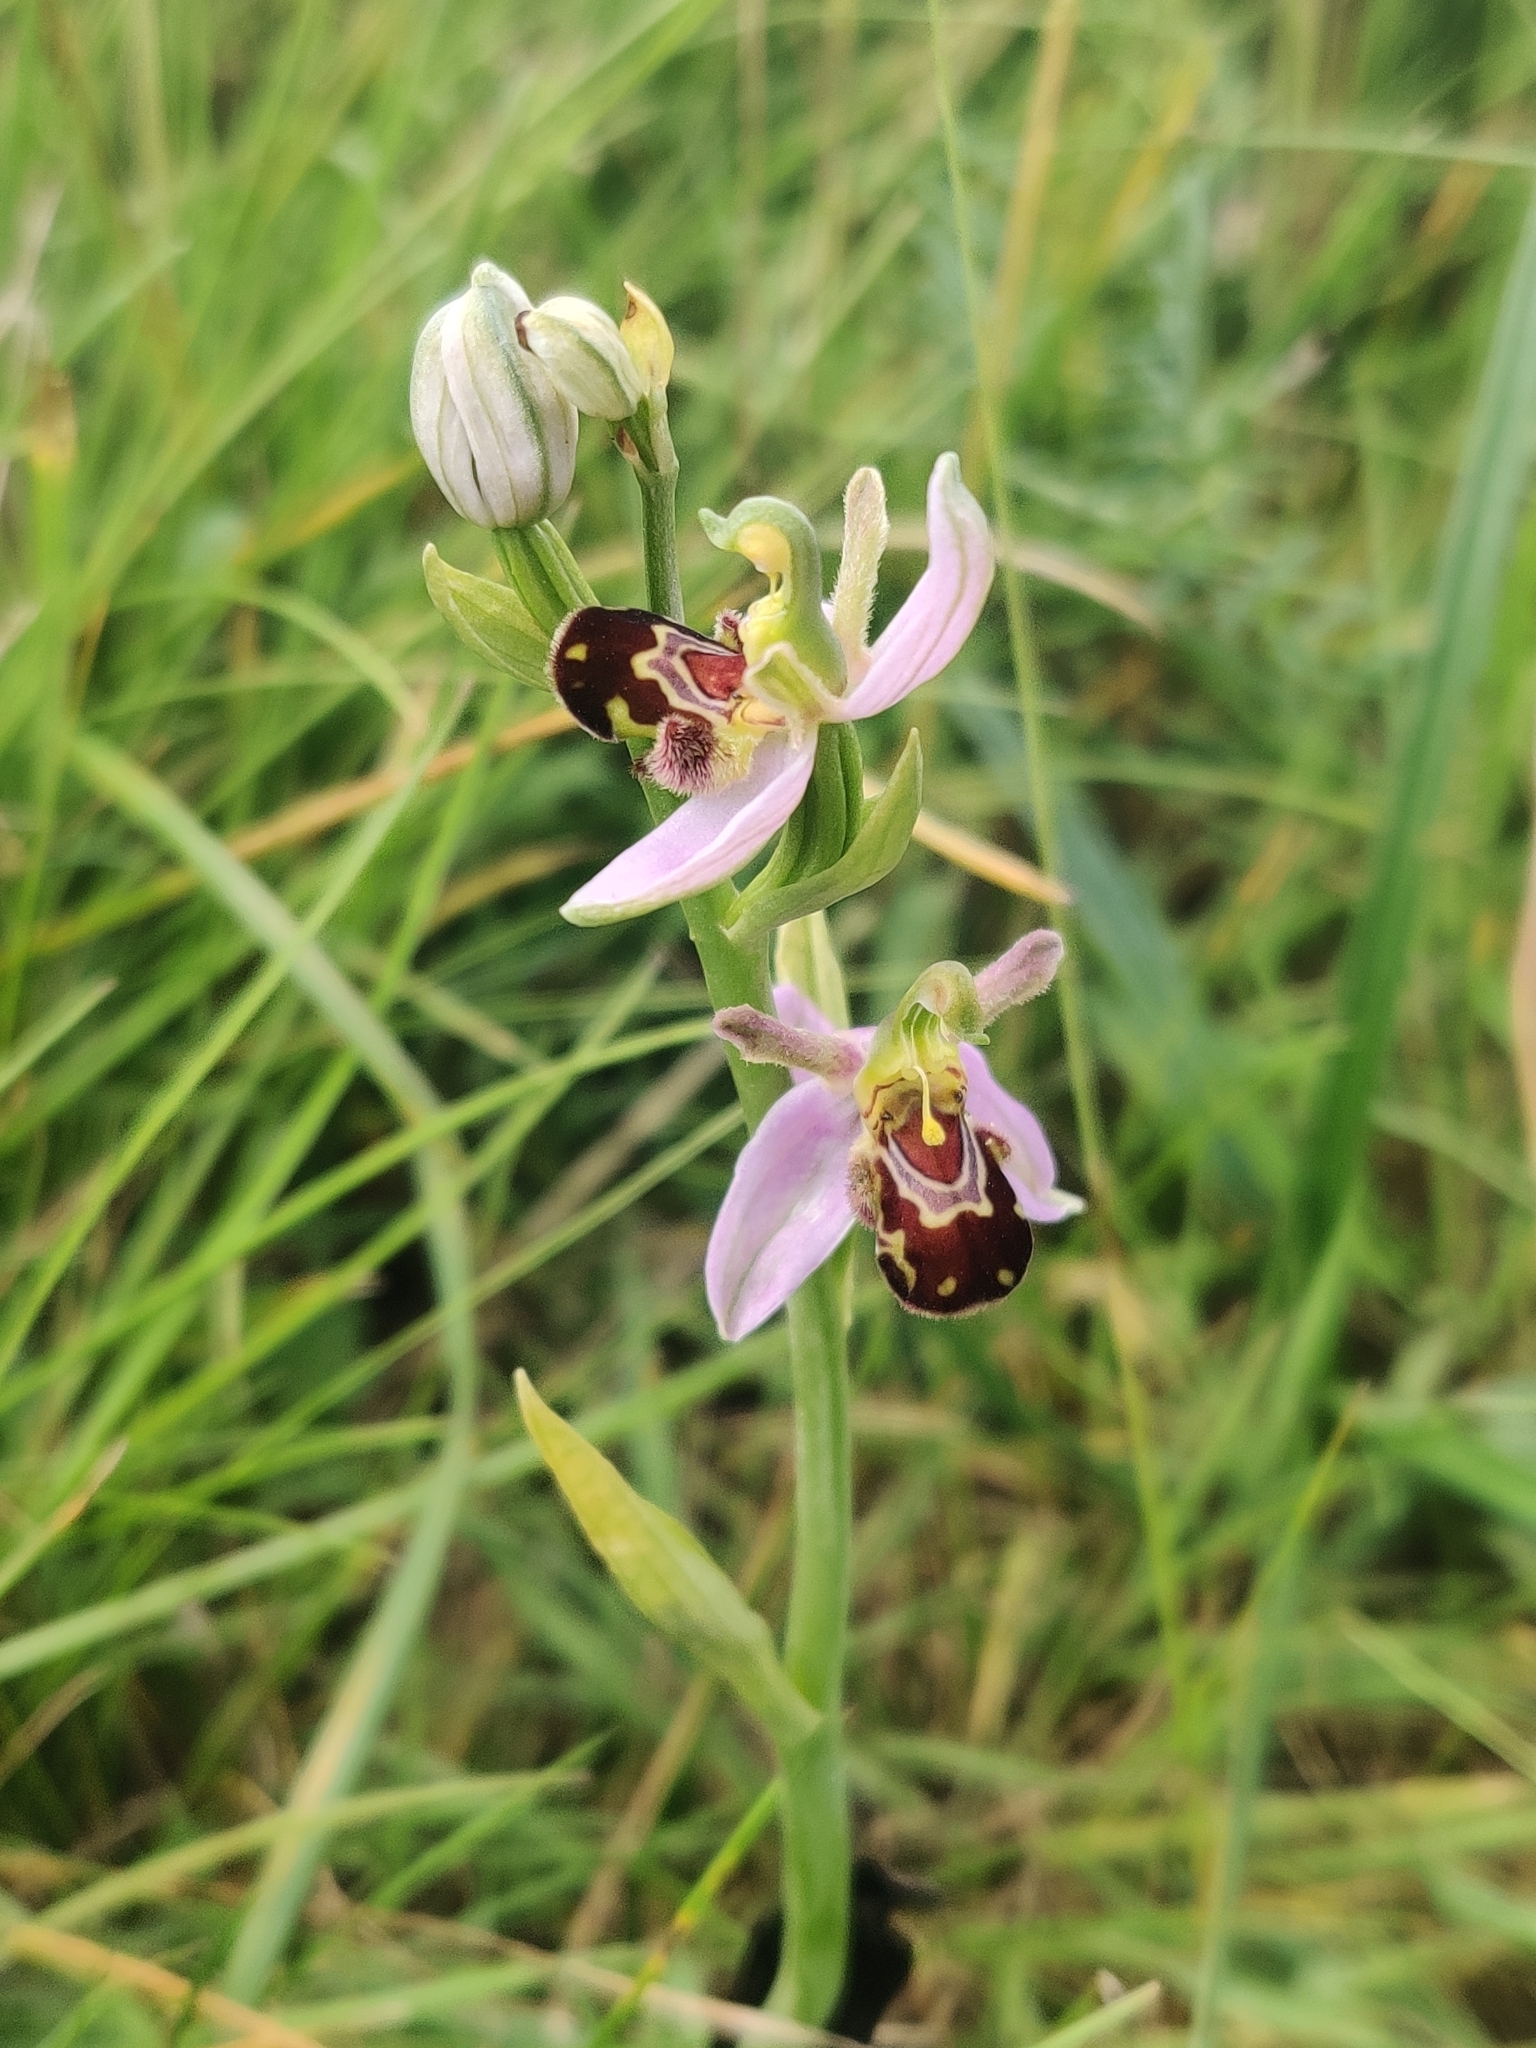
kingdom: Plantae
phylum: Tracheophyta
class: Liliopsida
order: Asparagales
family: Orchidaceae
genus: Ophrys
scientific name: Ophrys apifera
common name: Bee orchid
